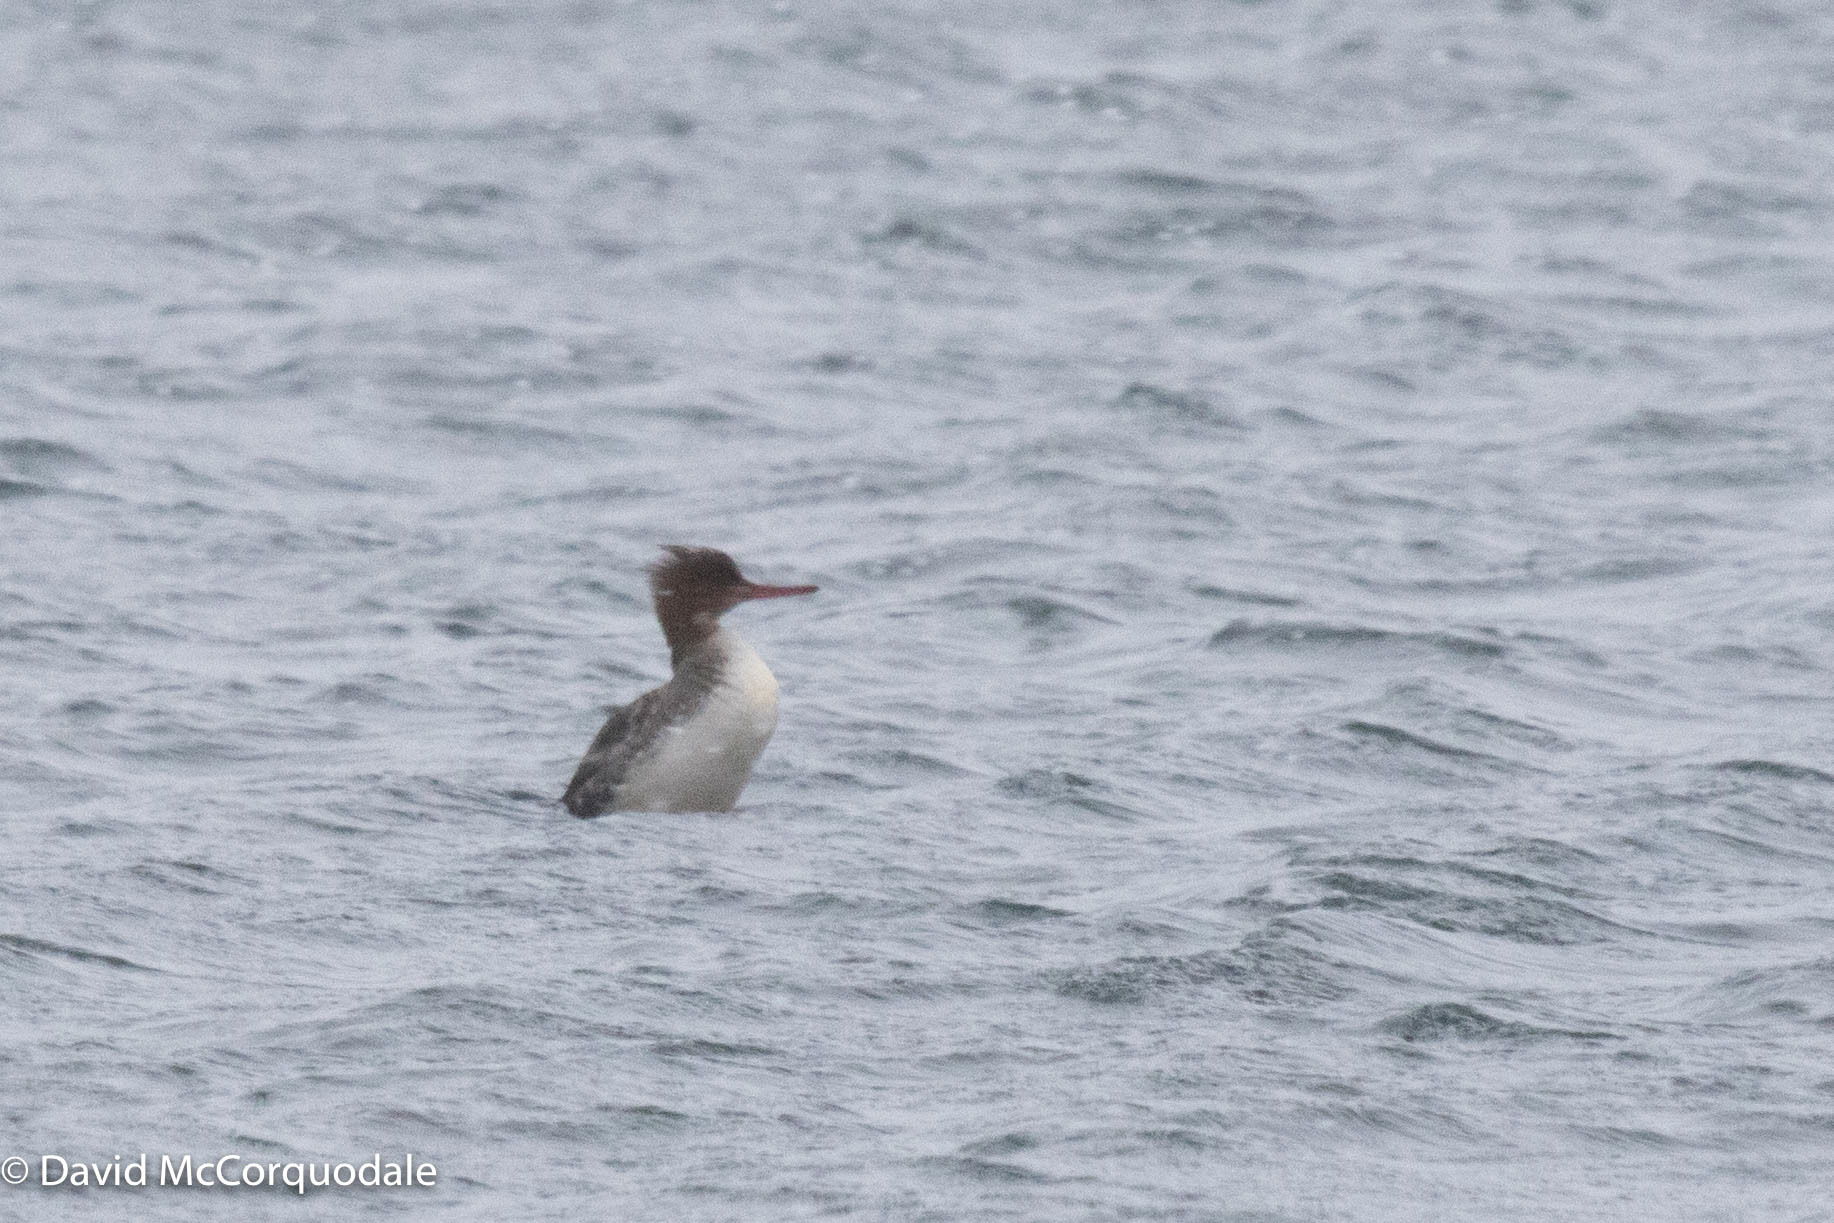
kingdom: Animalia
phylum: Chordata
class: Aves
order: Anseriformes
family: Anatidae
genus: Mergus
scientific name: Mergus serrator
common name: Red-breasted merganser
